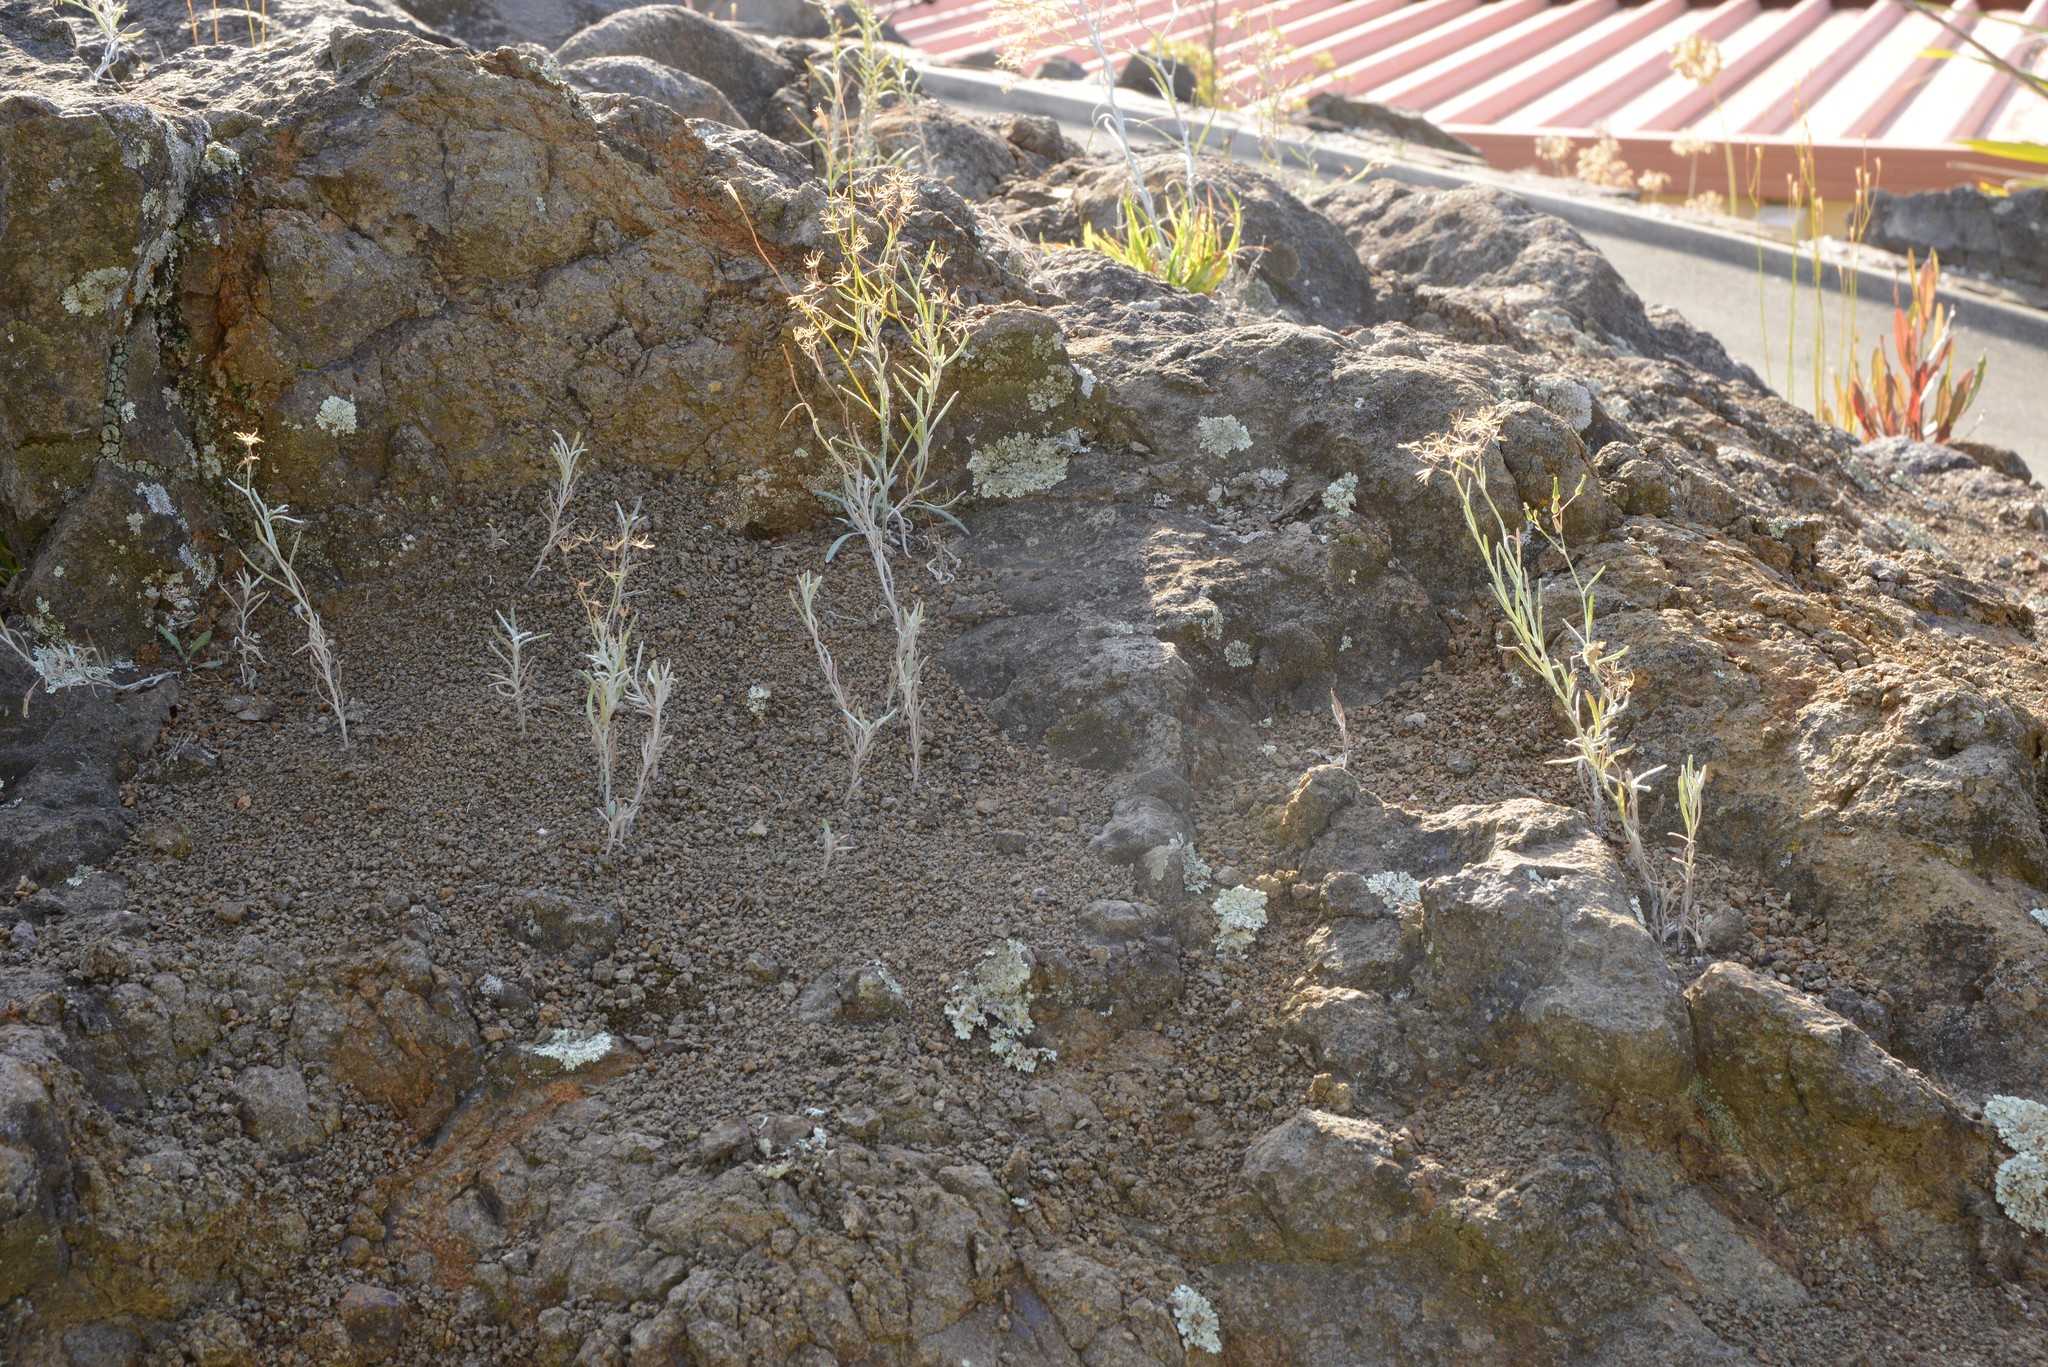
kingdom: Plantae
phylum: Tracheophyta
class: Magnoliopsida
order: Asterales
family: Asteraceae
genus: Senecio
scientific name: Senecio quadridentatus
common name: Cotton fireweed
